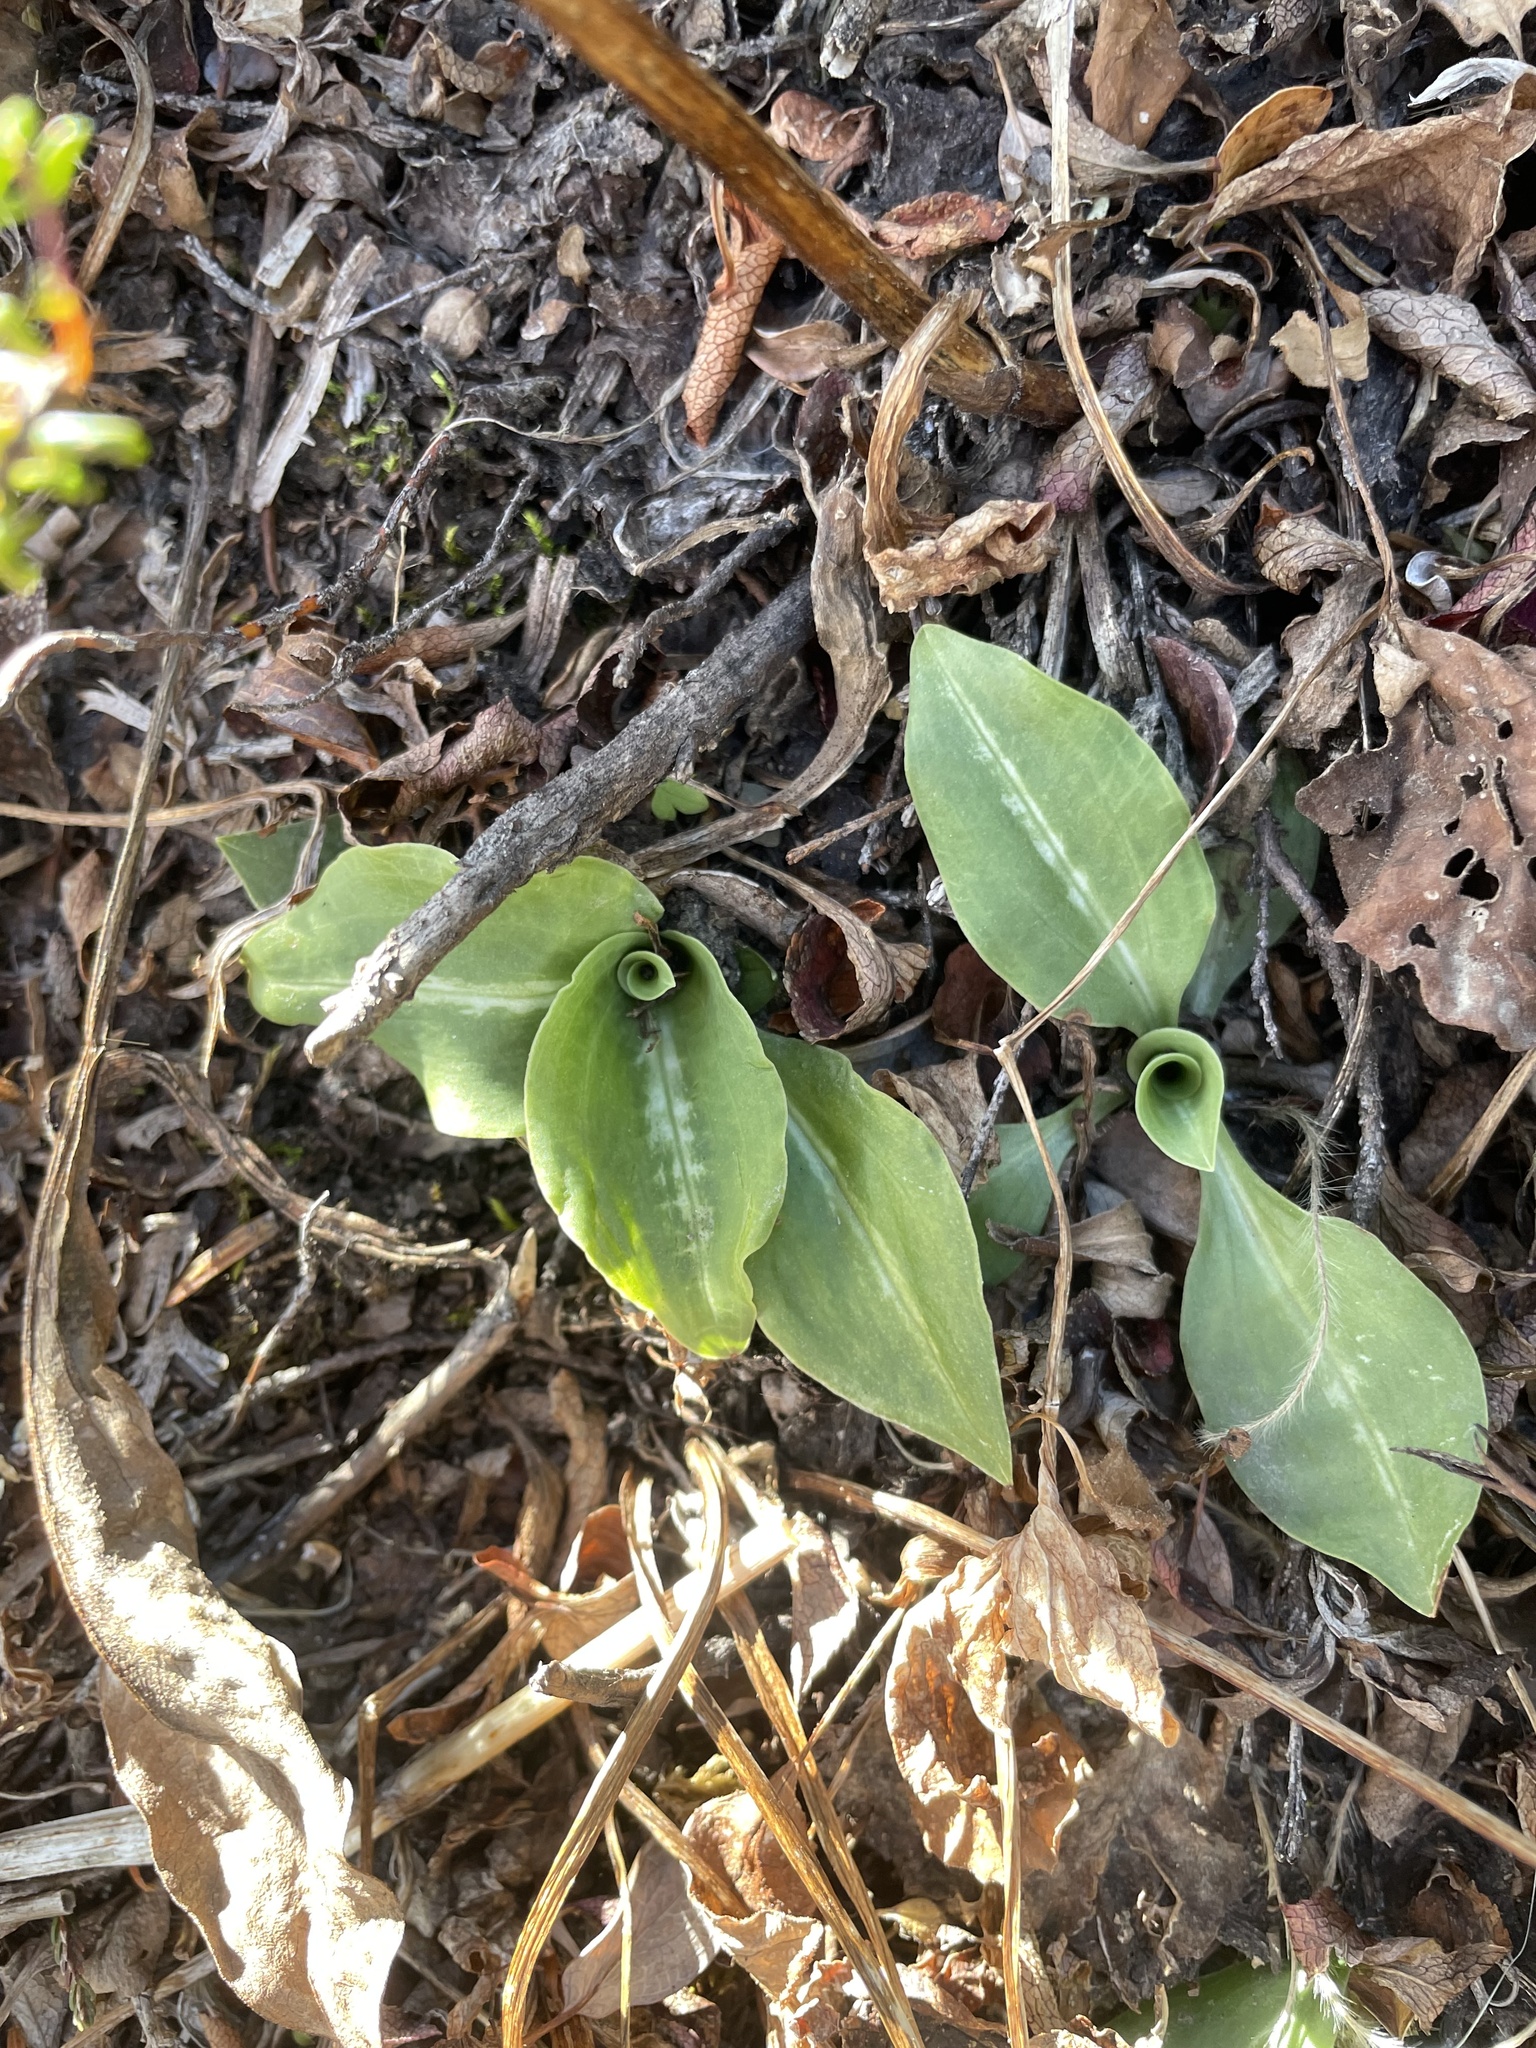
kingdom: Plantae
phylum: Tracheophyta
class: Liliopsida
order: Asparagales
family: Orchidaceae
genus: Goodyera
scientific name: Goodyera oblongifolia
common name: Giant rattlesnake-plantain
